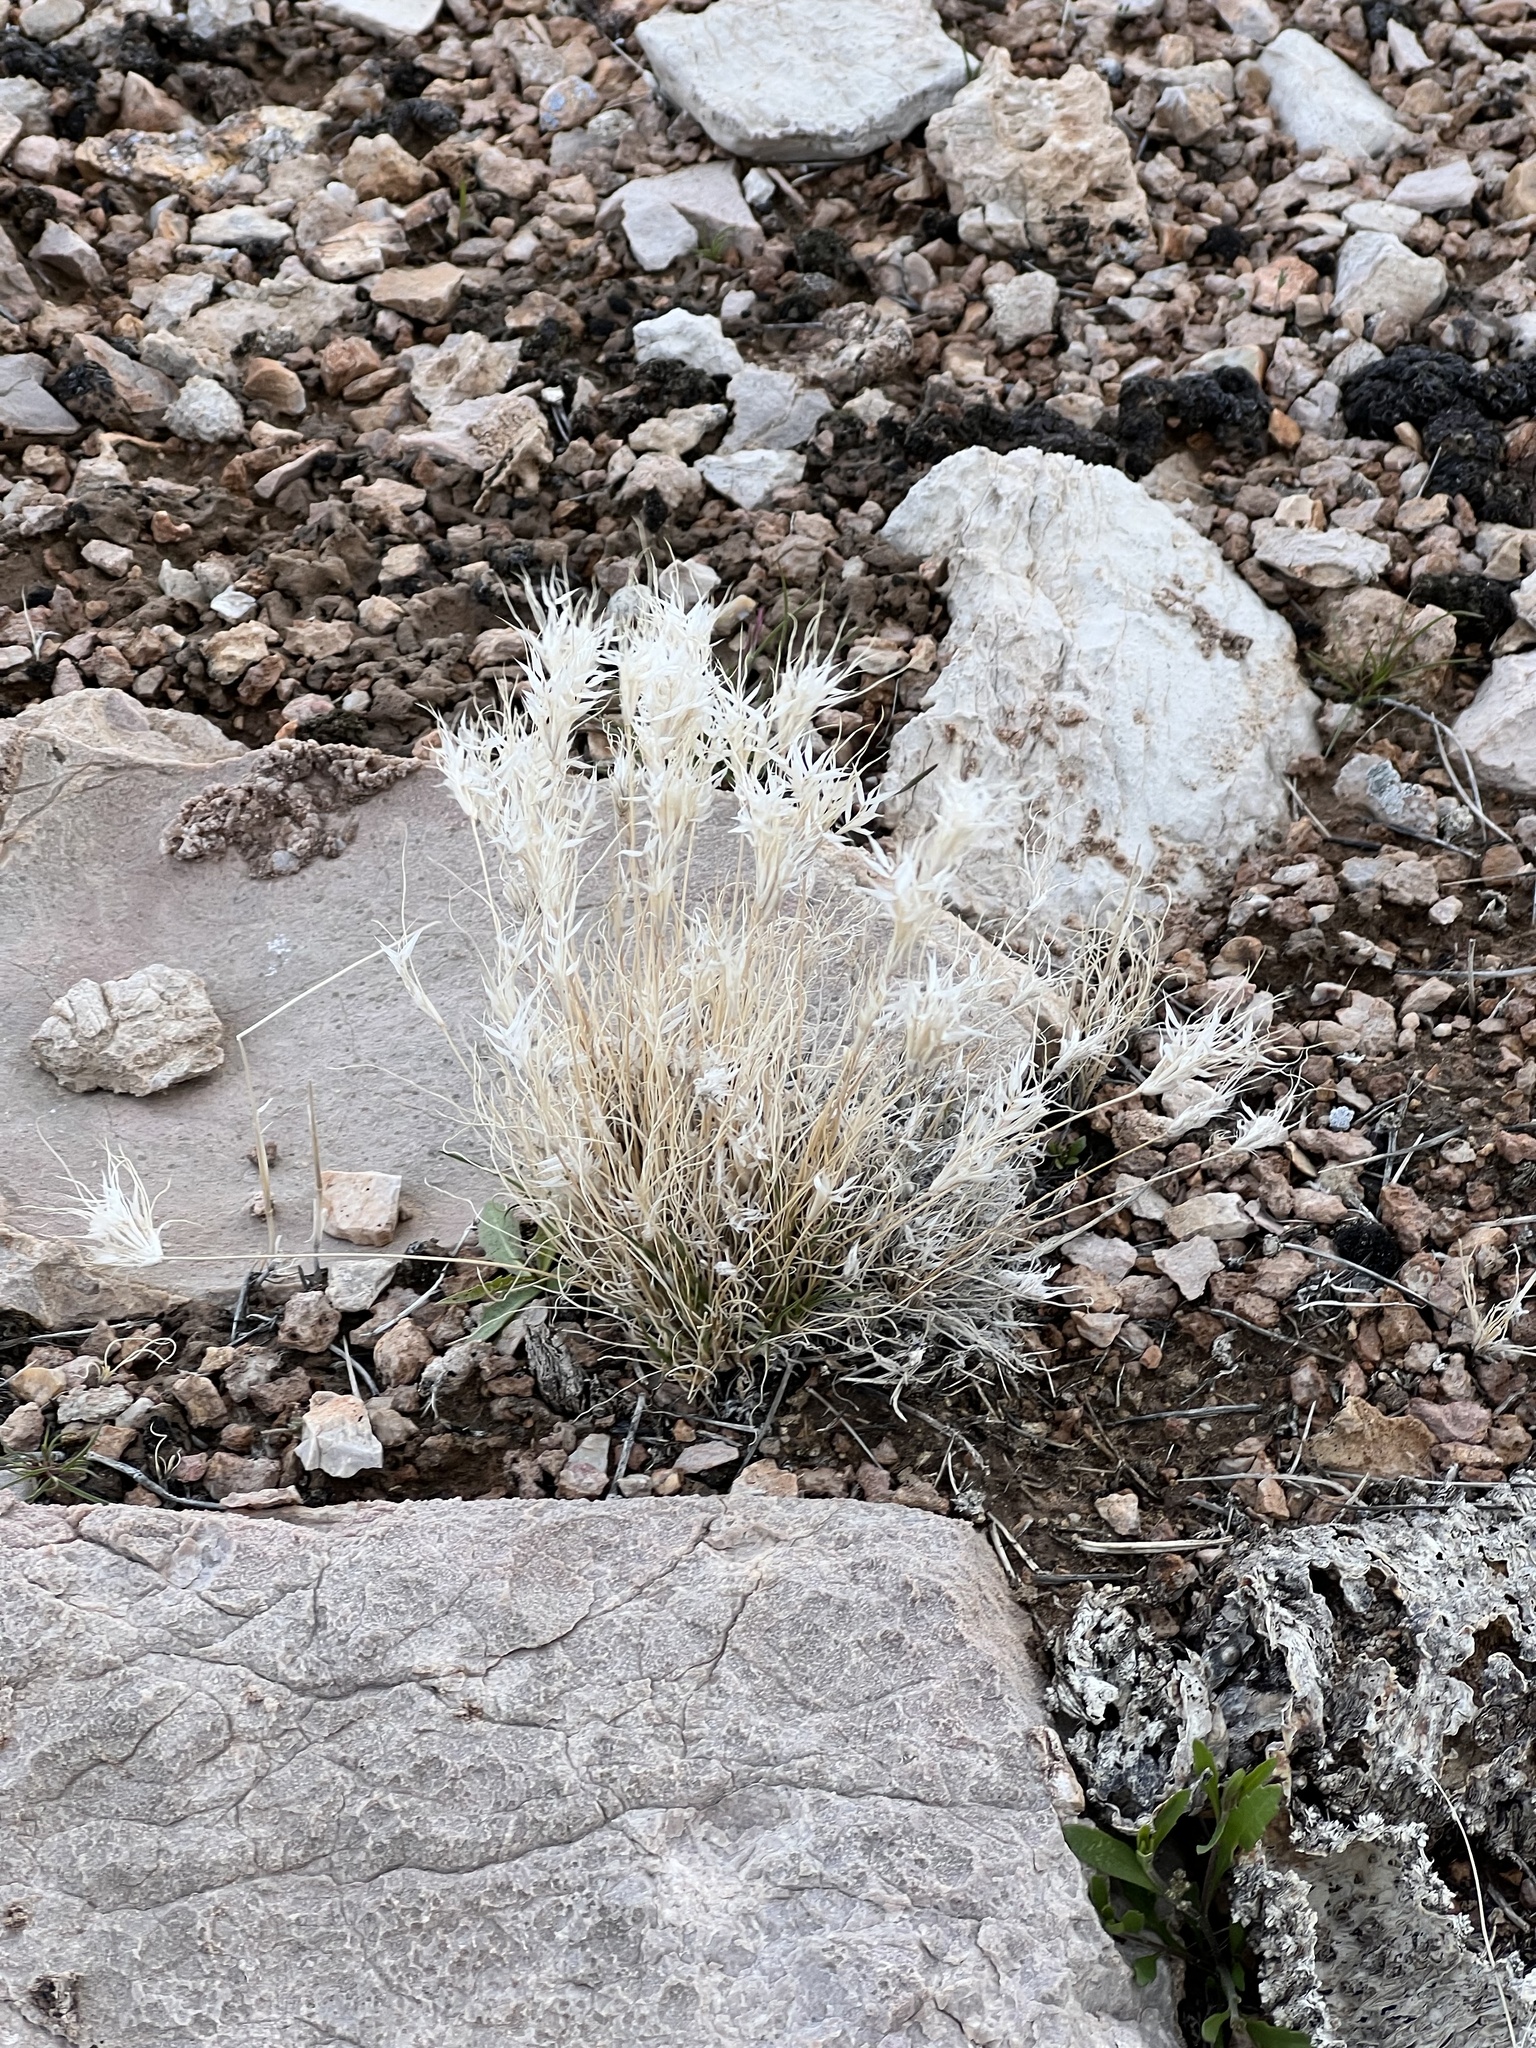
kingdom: Plantae
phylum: Tracheophyta
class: Liliopsida
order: Poales
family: Poaceae
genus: Dasyochloa
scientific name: Dasyochloa pulchella
